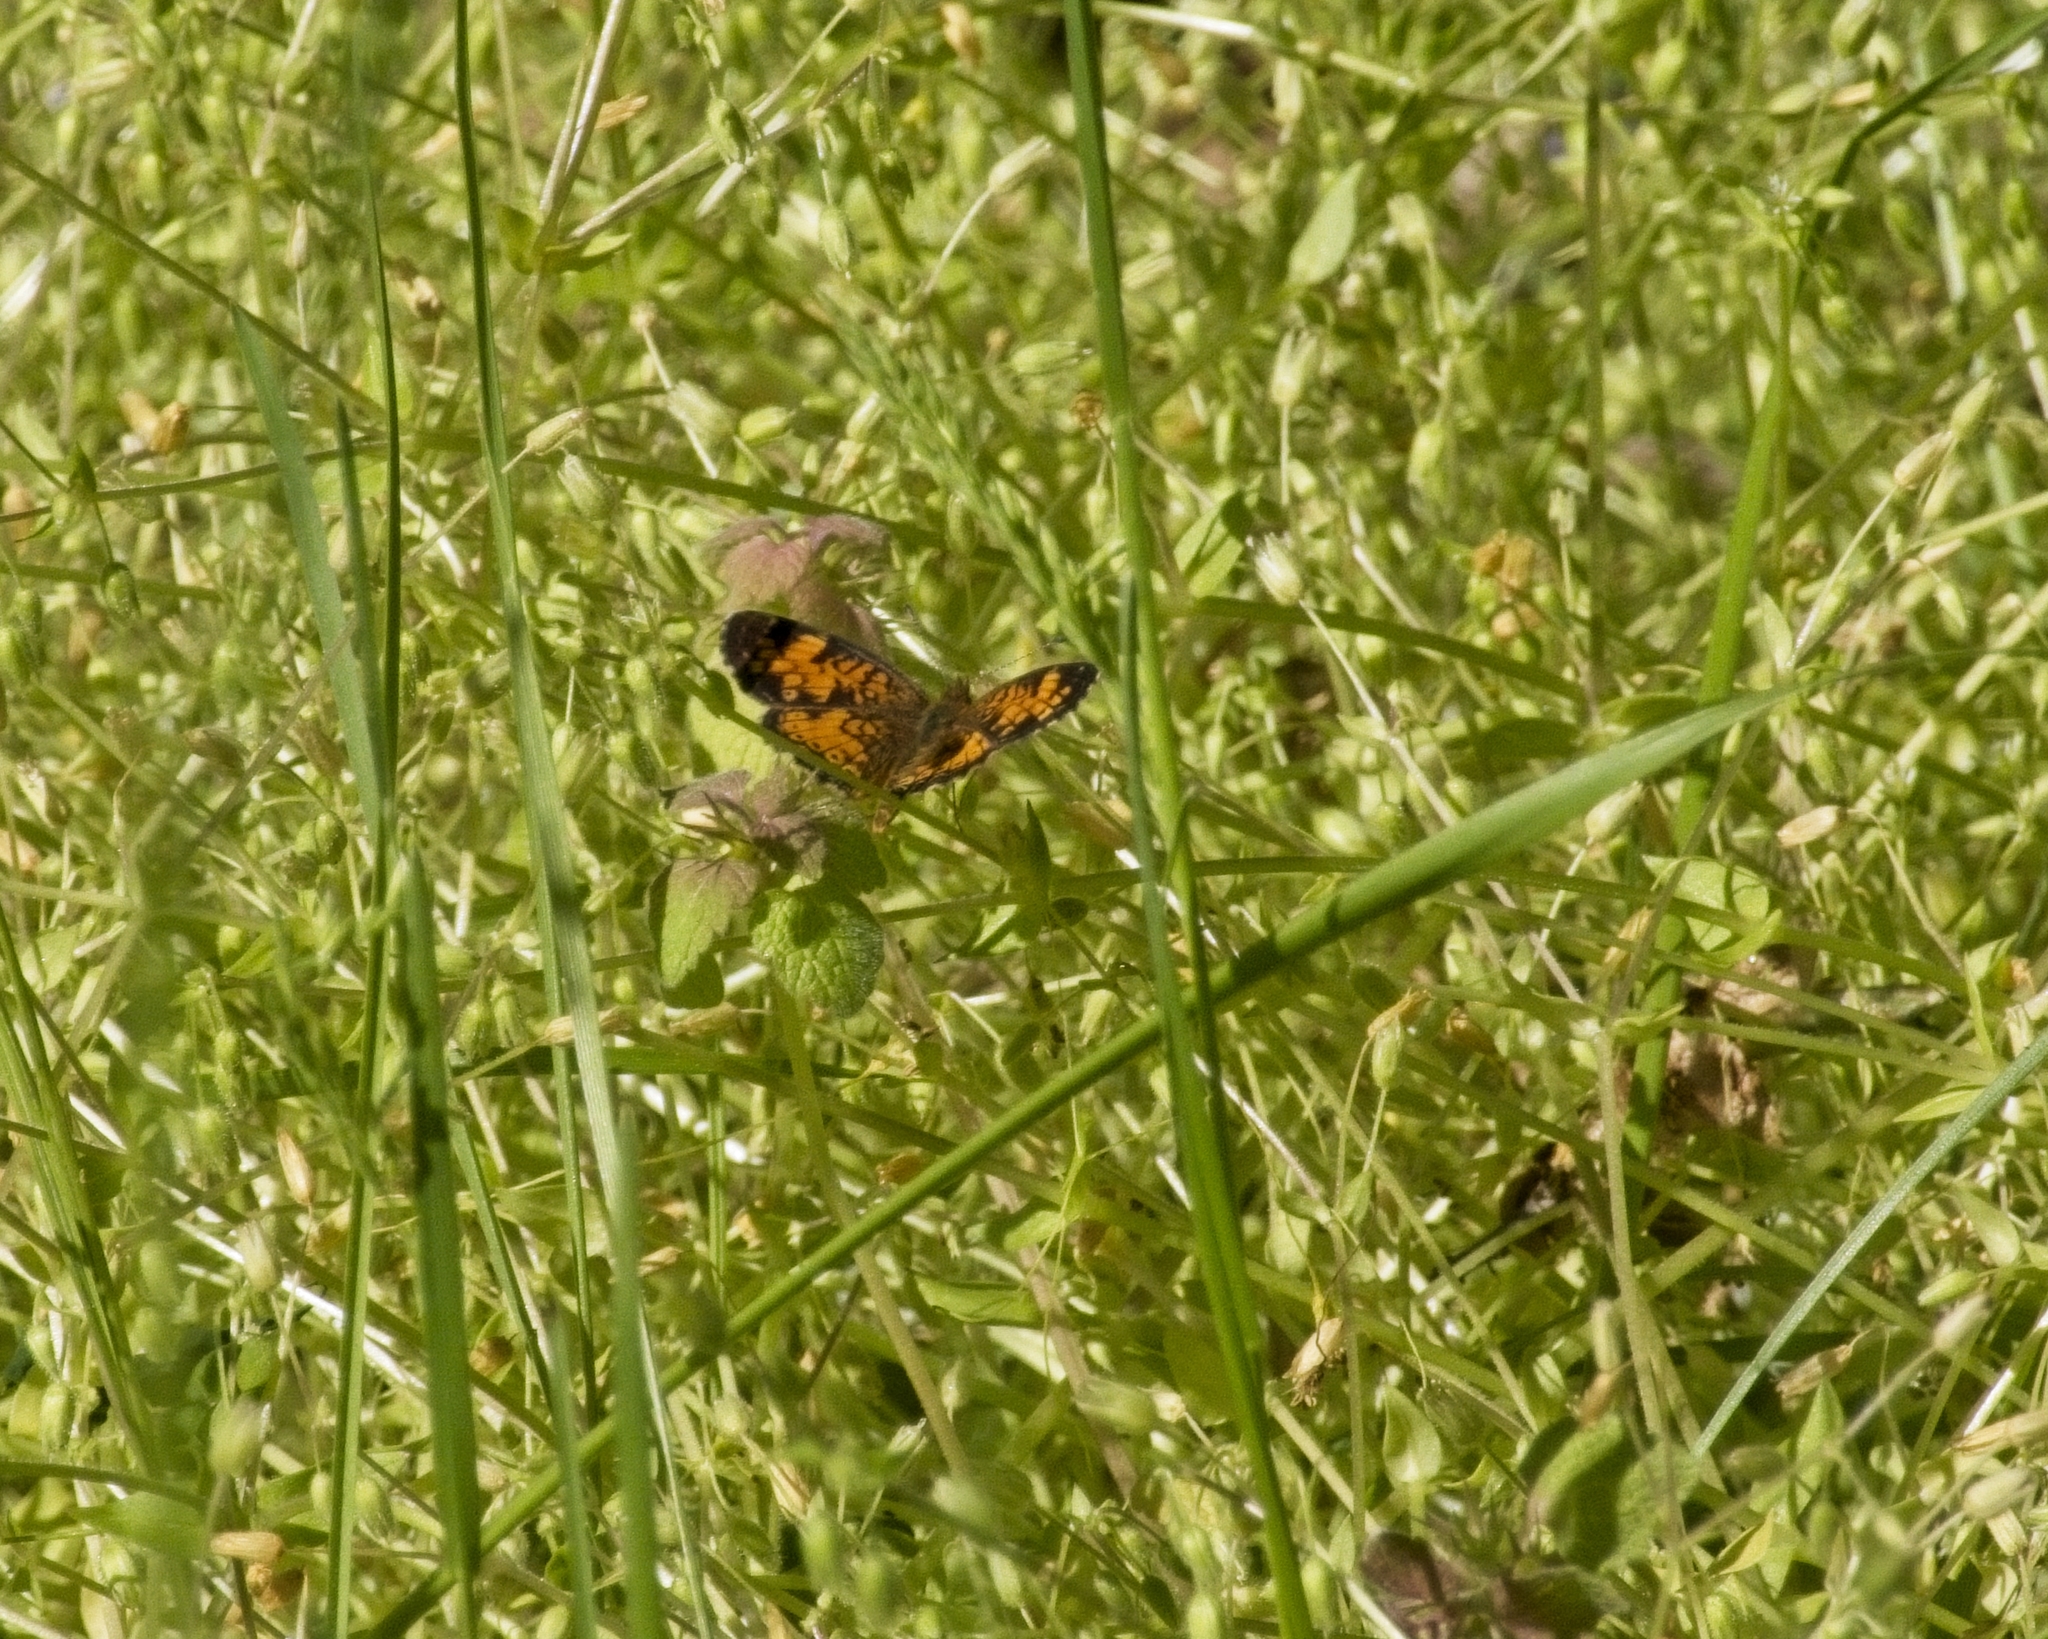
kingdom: Animalia
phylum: Arthropoda
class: Insecta
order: Lepidoptera
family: Nymphalidae
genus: Phyciodes
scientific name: Phyciodes tharos
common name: Pearl crescent
